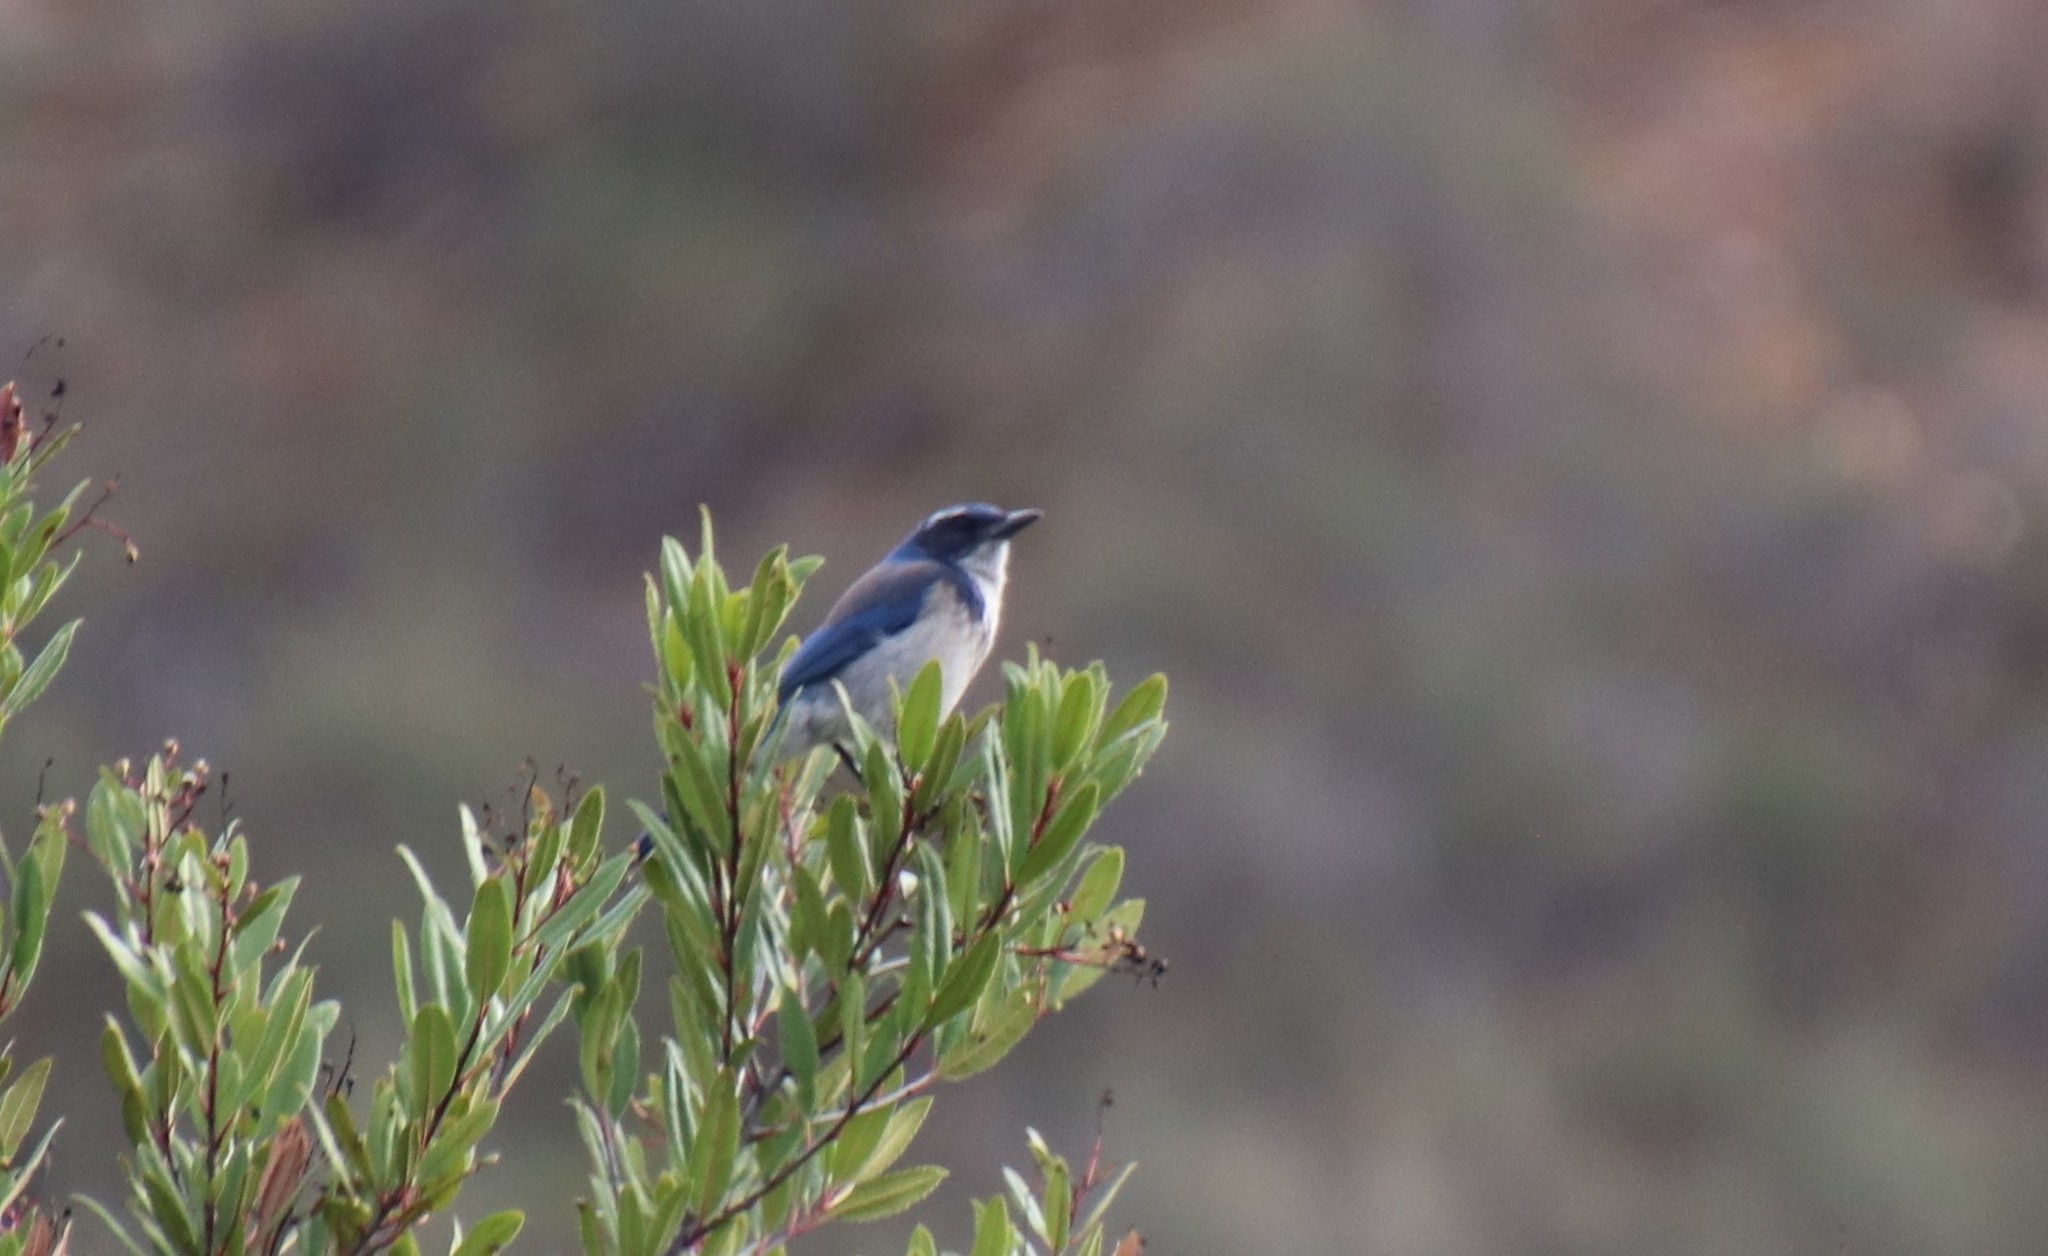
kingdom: Animalia
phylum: Chordata
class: Aves
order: Passeriformes
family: Corvidae
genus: Aphelocoma
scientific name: Aphelocoma californica
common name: California scrub-jay
